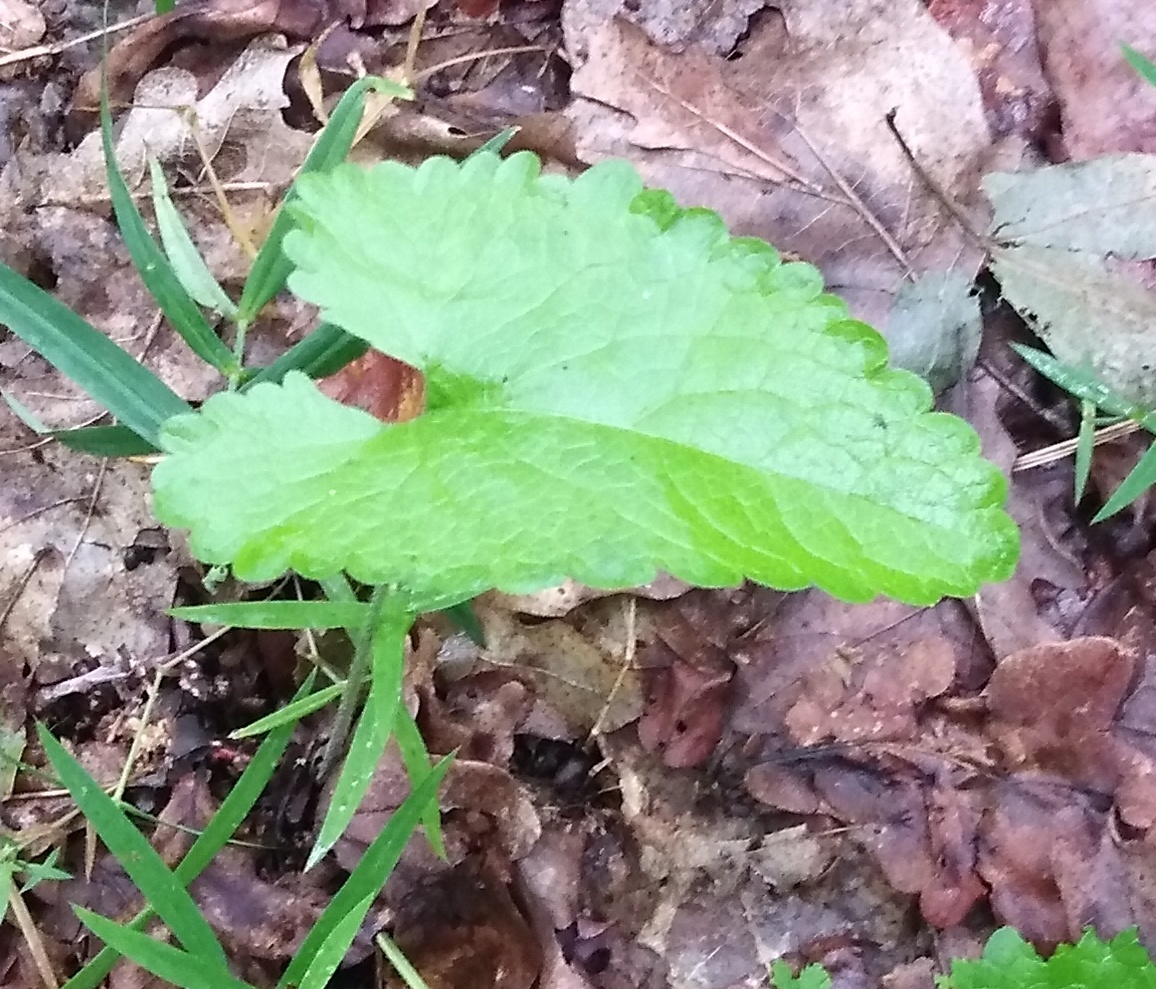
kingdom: Plantae
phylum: Tracheophyta
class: Magnoliopsida
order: Lamiales
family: Lamiaceae
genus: Betonica
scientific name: Betonica officinalis
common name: Bishop's-wort
